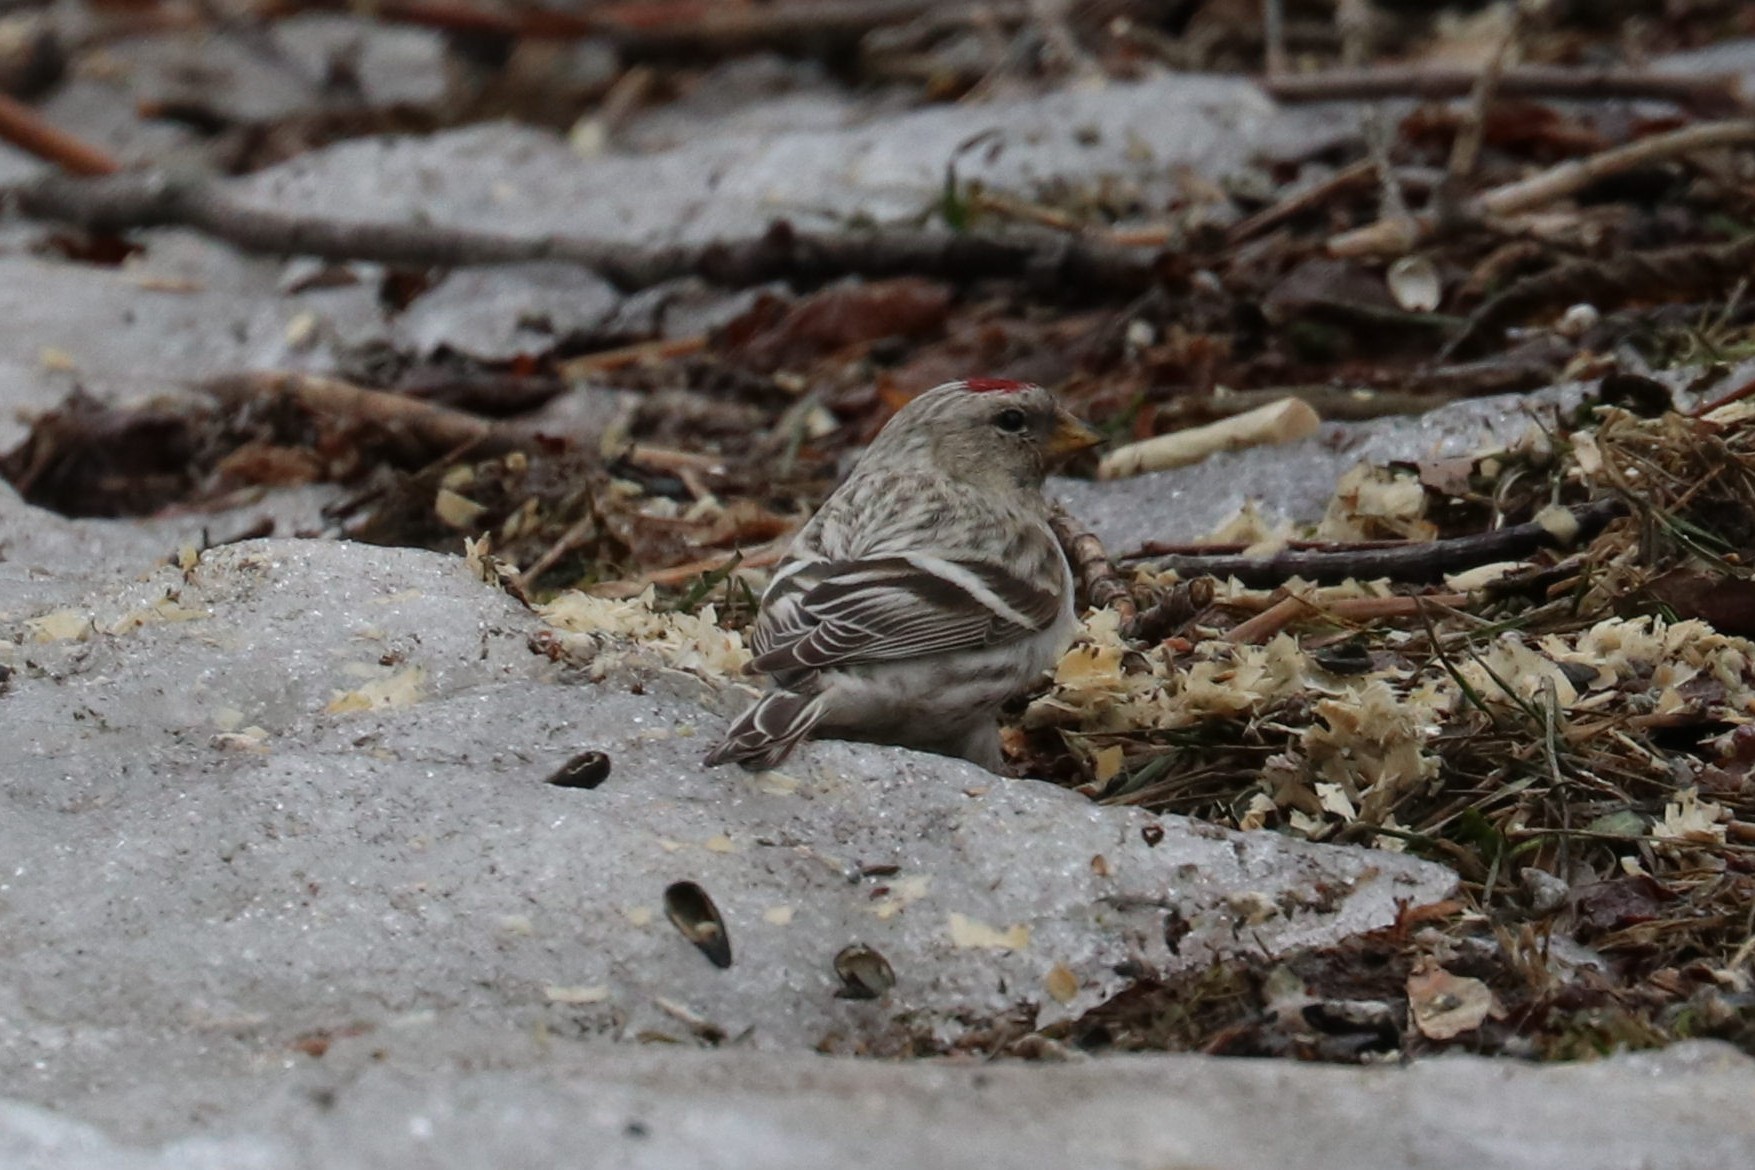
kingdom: Animalia
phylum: Chordata
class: Aves
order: Passeriformes
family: Fringillidae
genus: Acanthis
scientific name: Acanthis flammea
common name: Common redpoll
